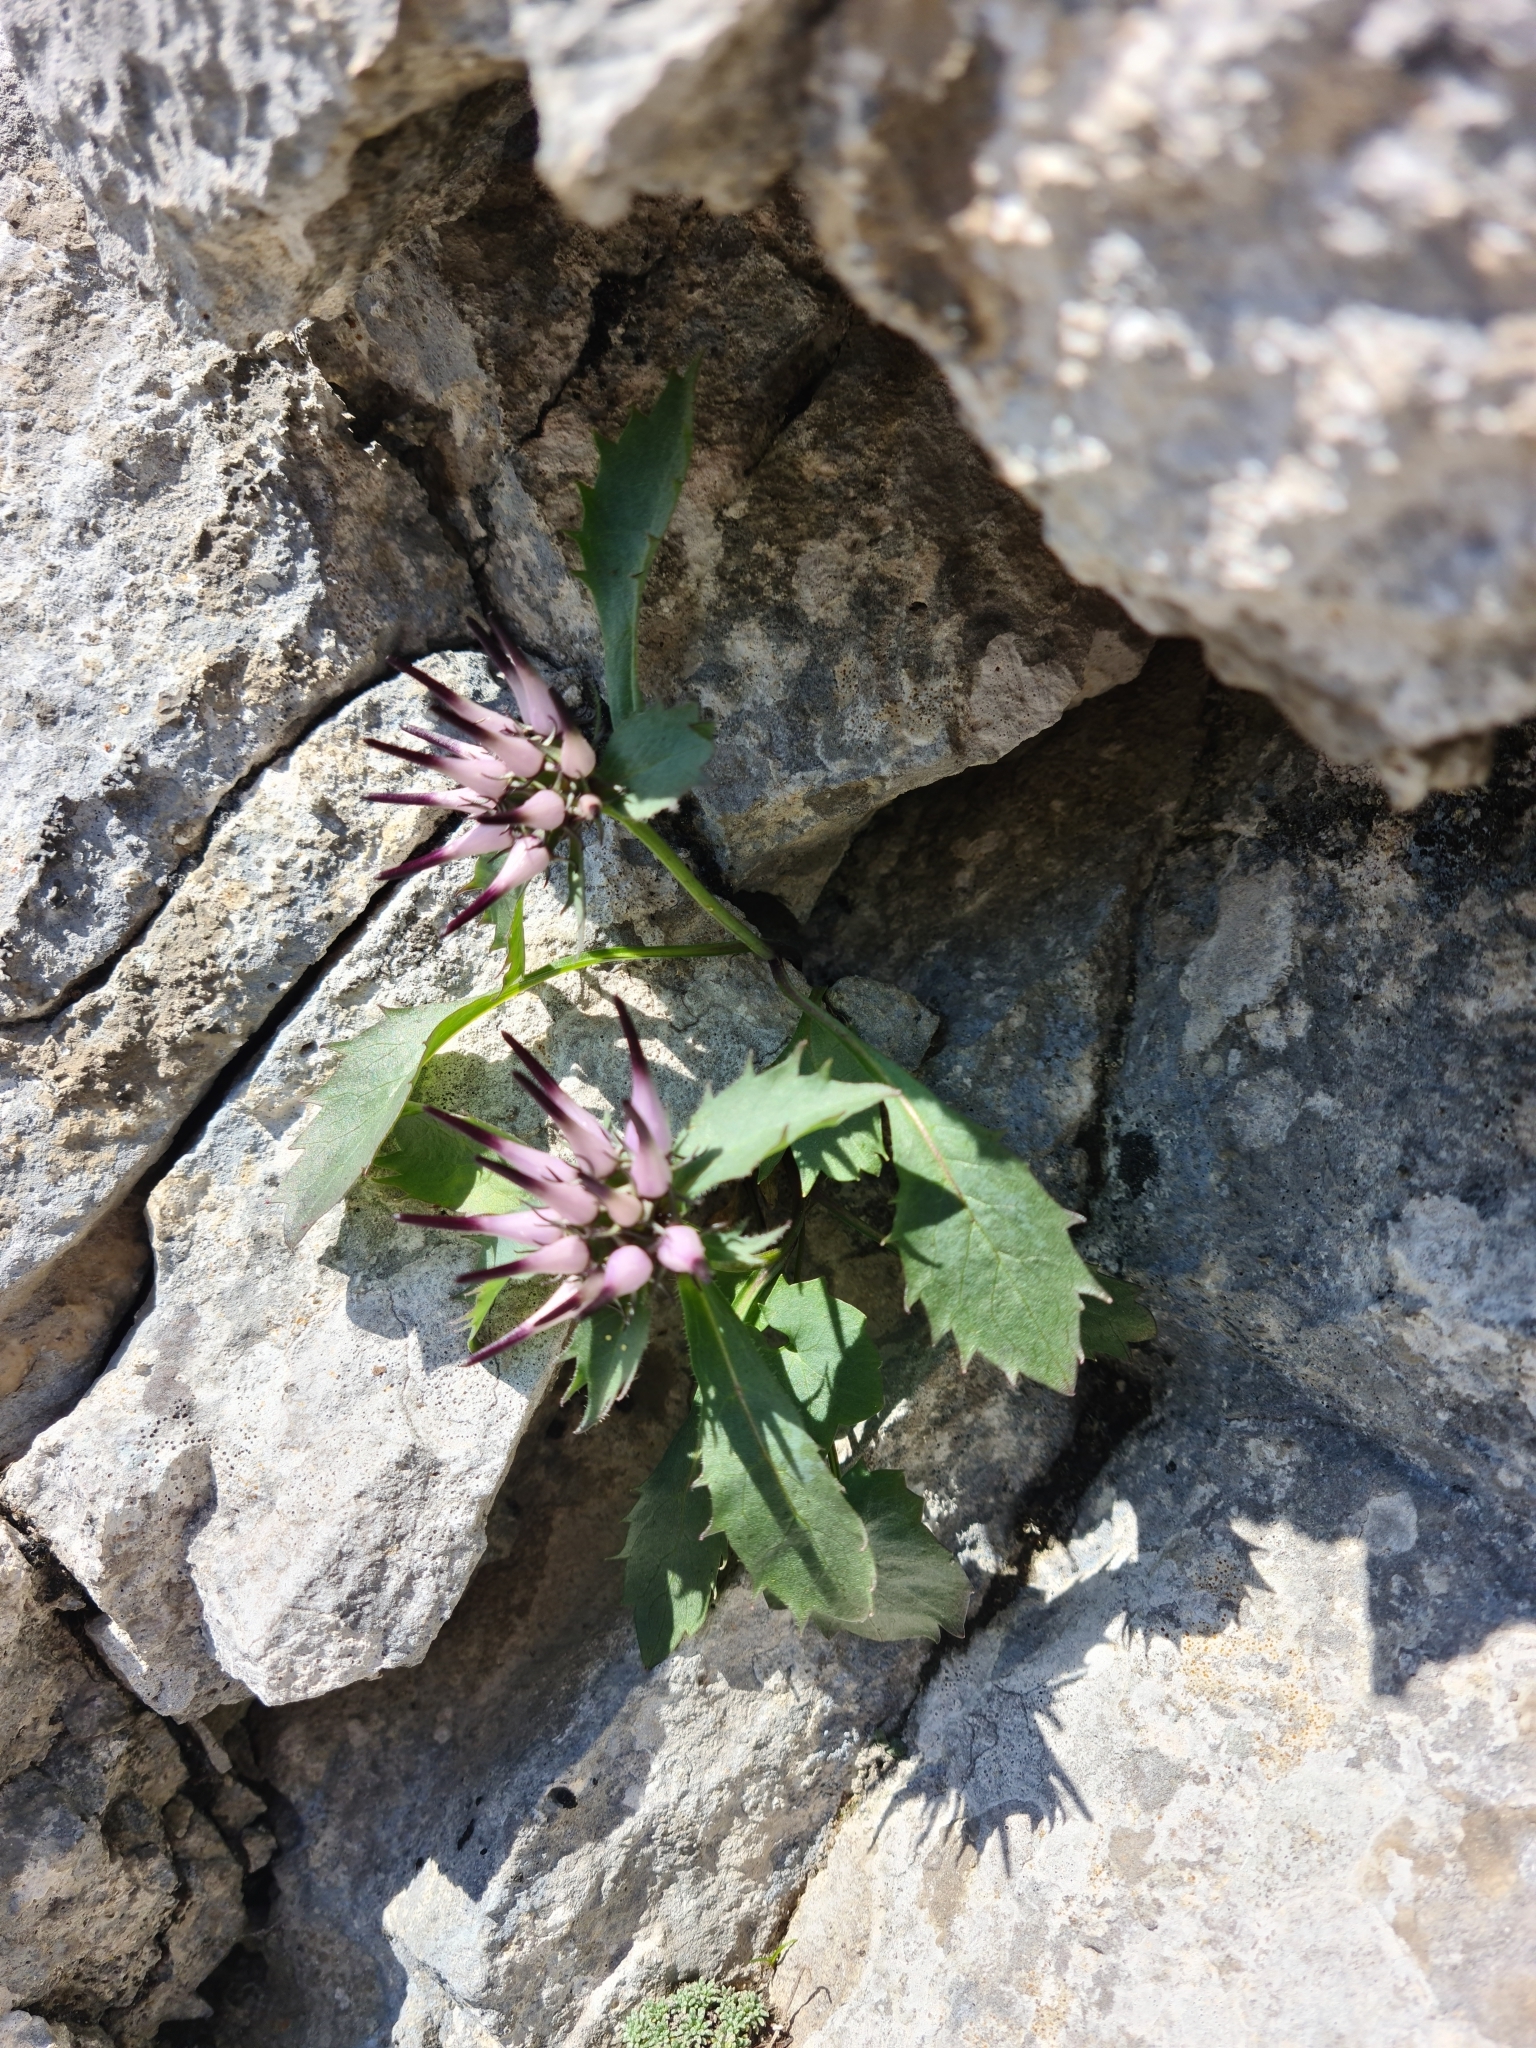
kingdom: Plantae
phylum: Tracheophyta
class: Magnoliopsida
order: Asterales
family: Campanulaceae
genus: Physoplexis
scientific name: Physoplexis comosa
